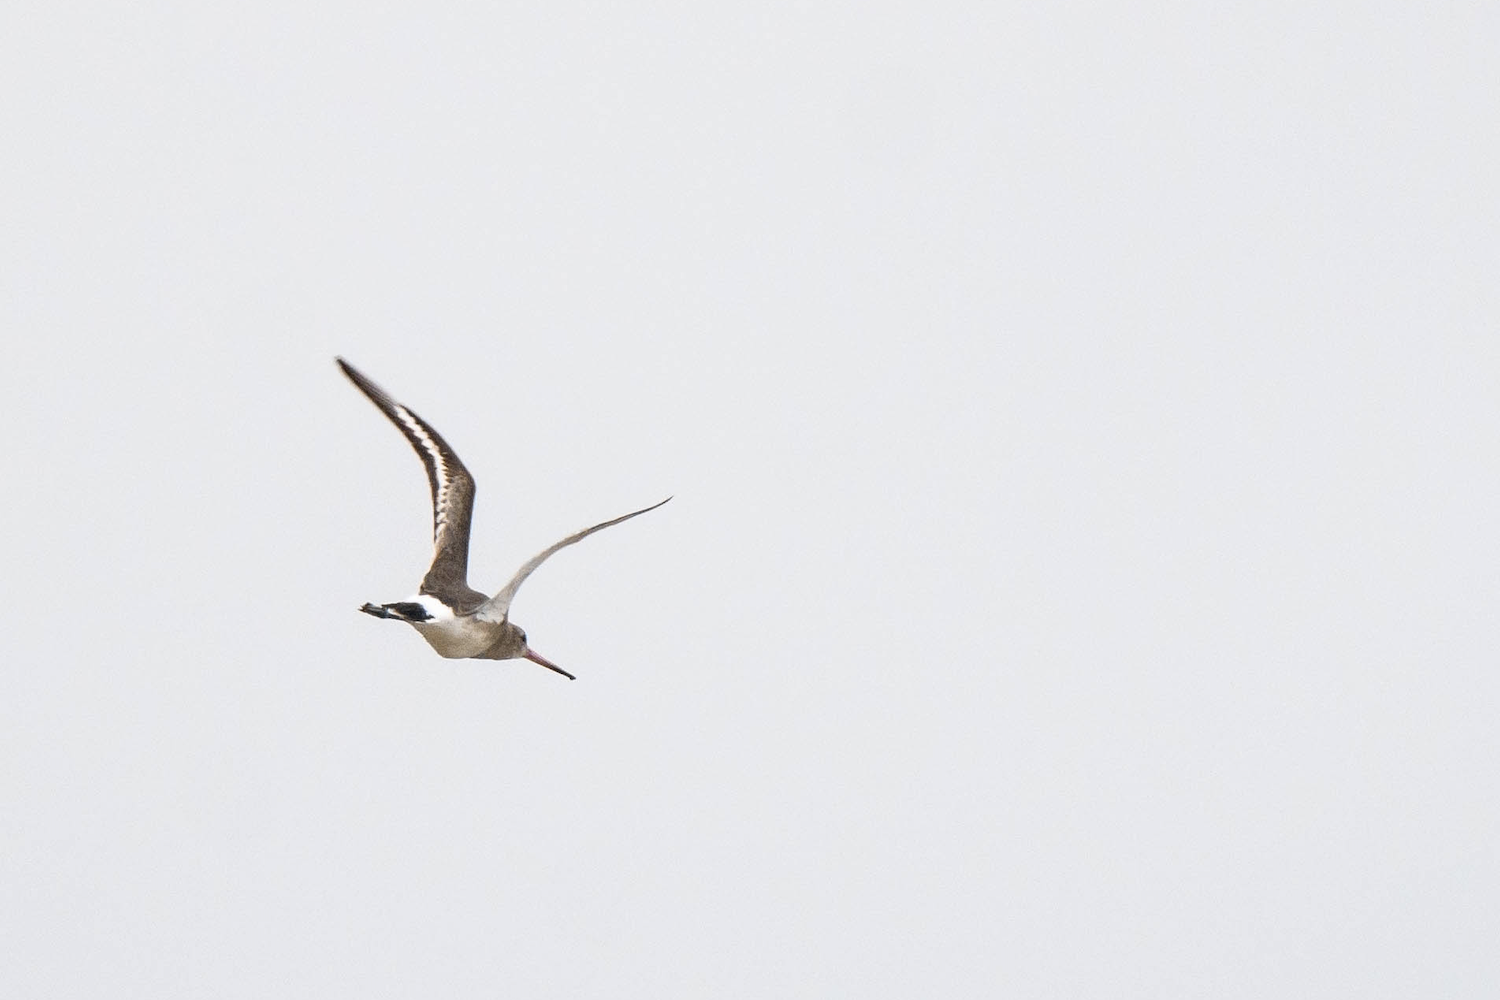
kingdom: Animalia
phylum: Chordata
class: Aves
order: Charadriiformes
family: Scolopacidae
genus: Limosa
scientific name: Limosa limosa
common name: Black-tailed godwit
